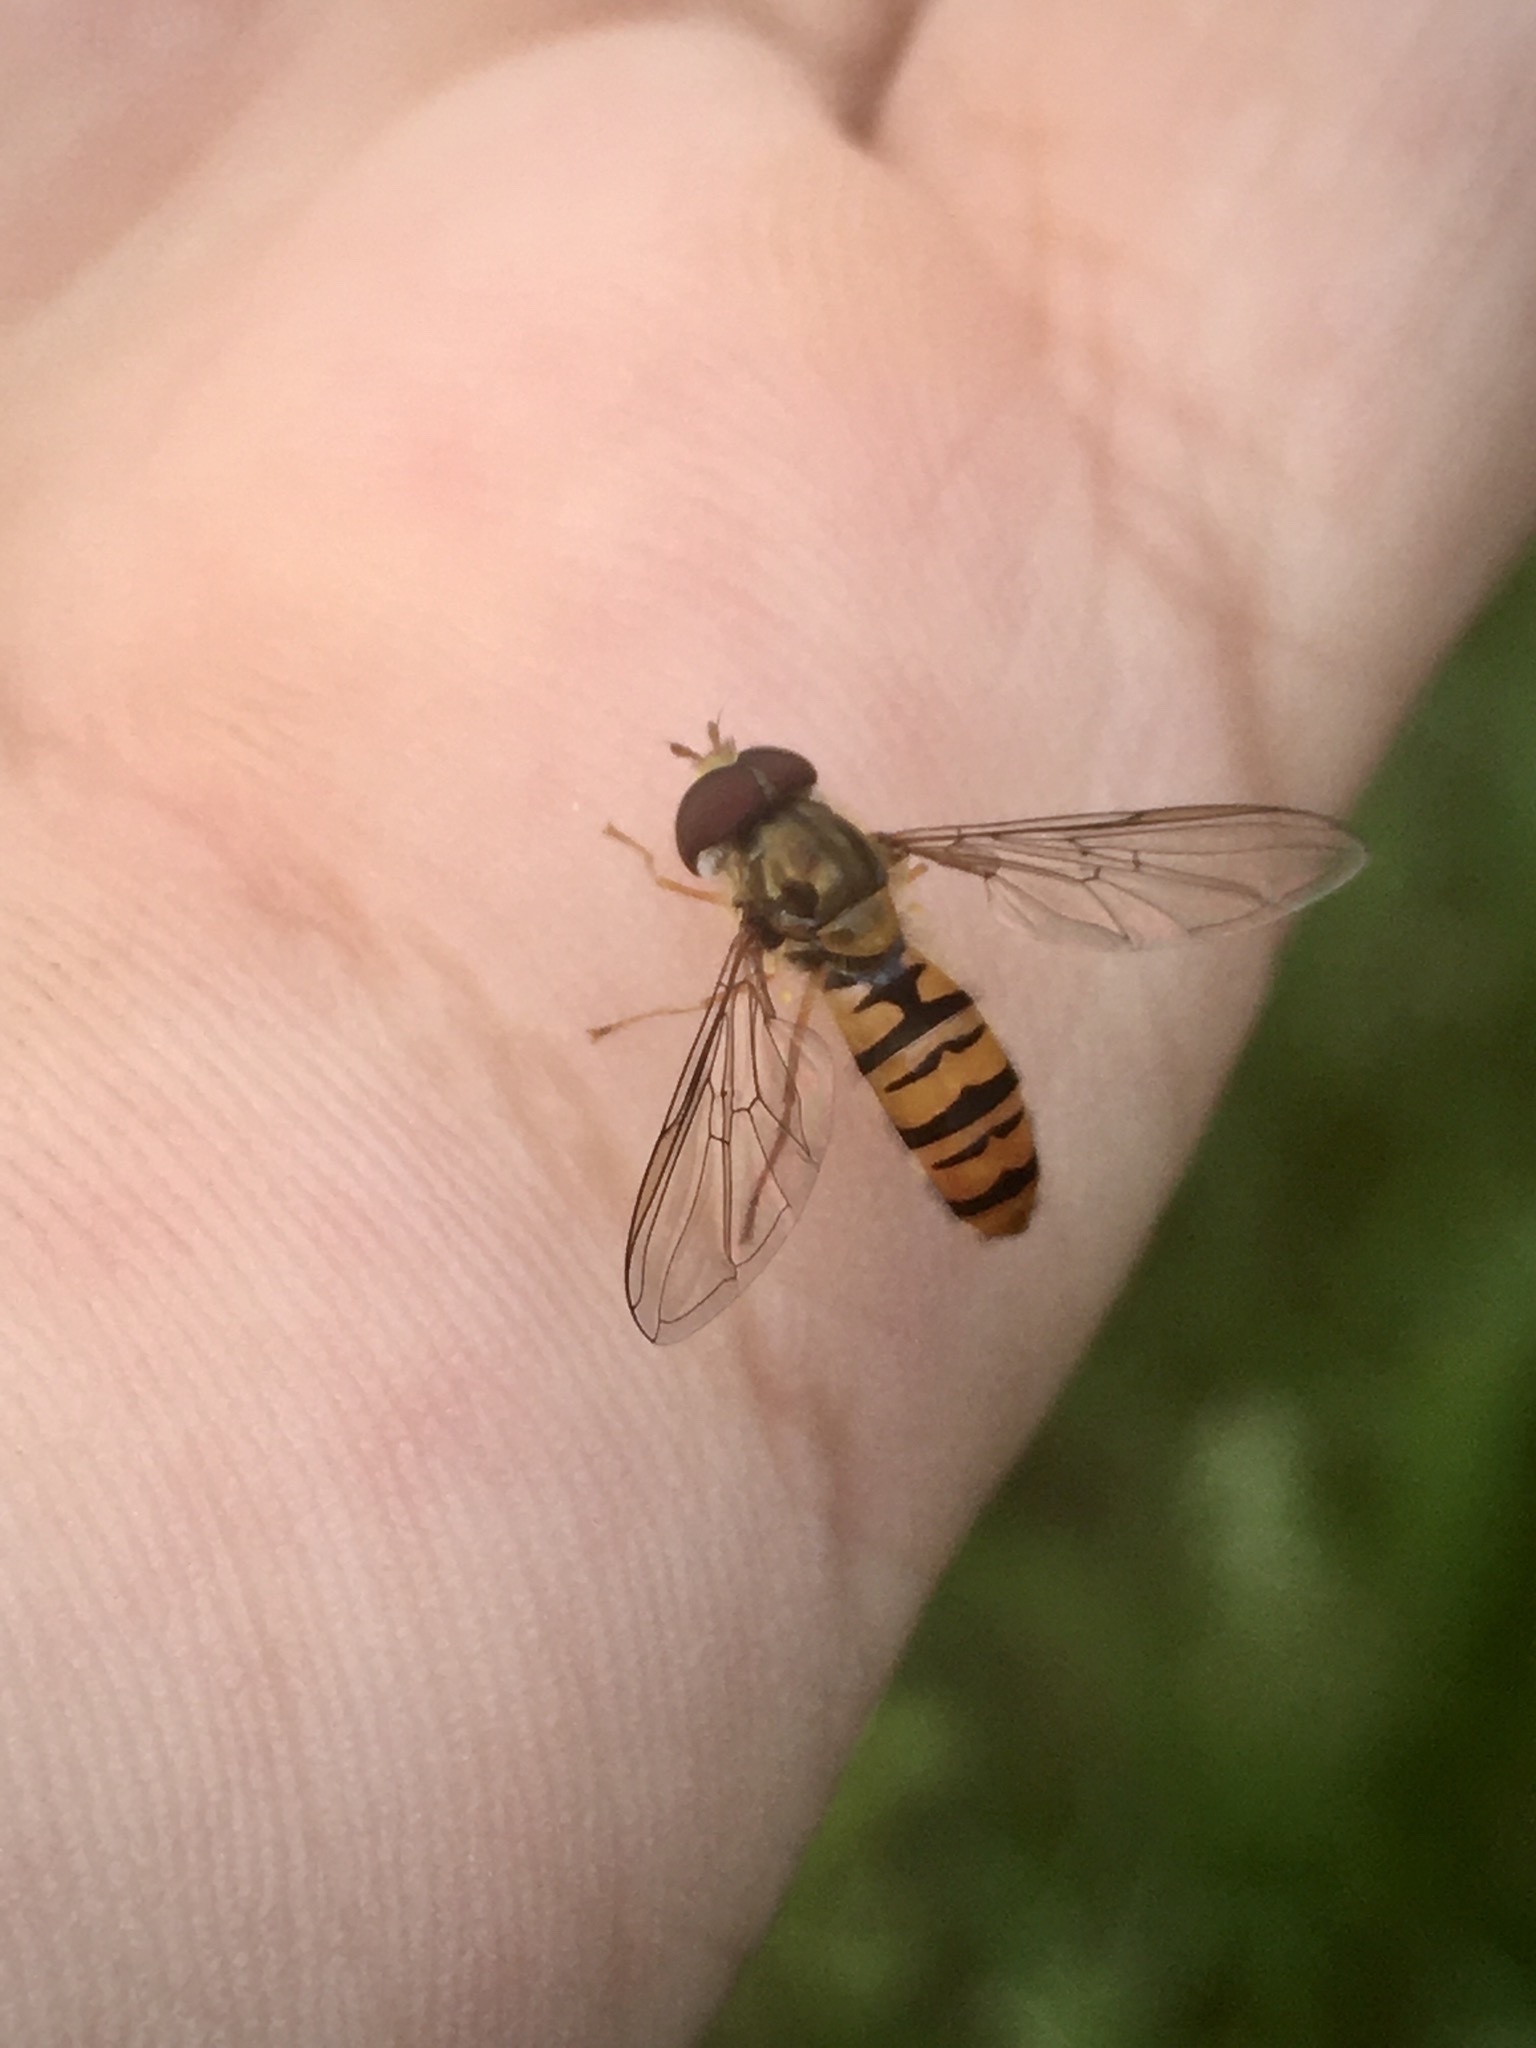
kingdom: Animalia
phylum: Arthropoda
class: Insecta
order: Diptera
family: Syrphidae
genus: Episyrphus
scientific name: Episyrphus balteatus
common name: Marmalade hoverfly
